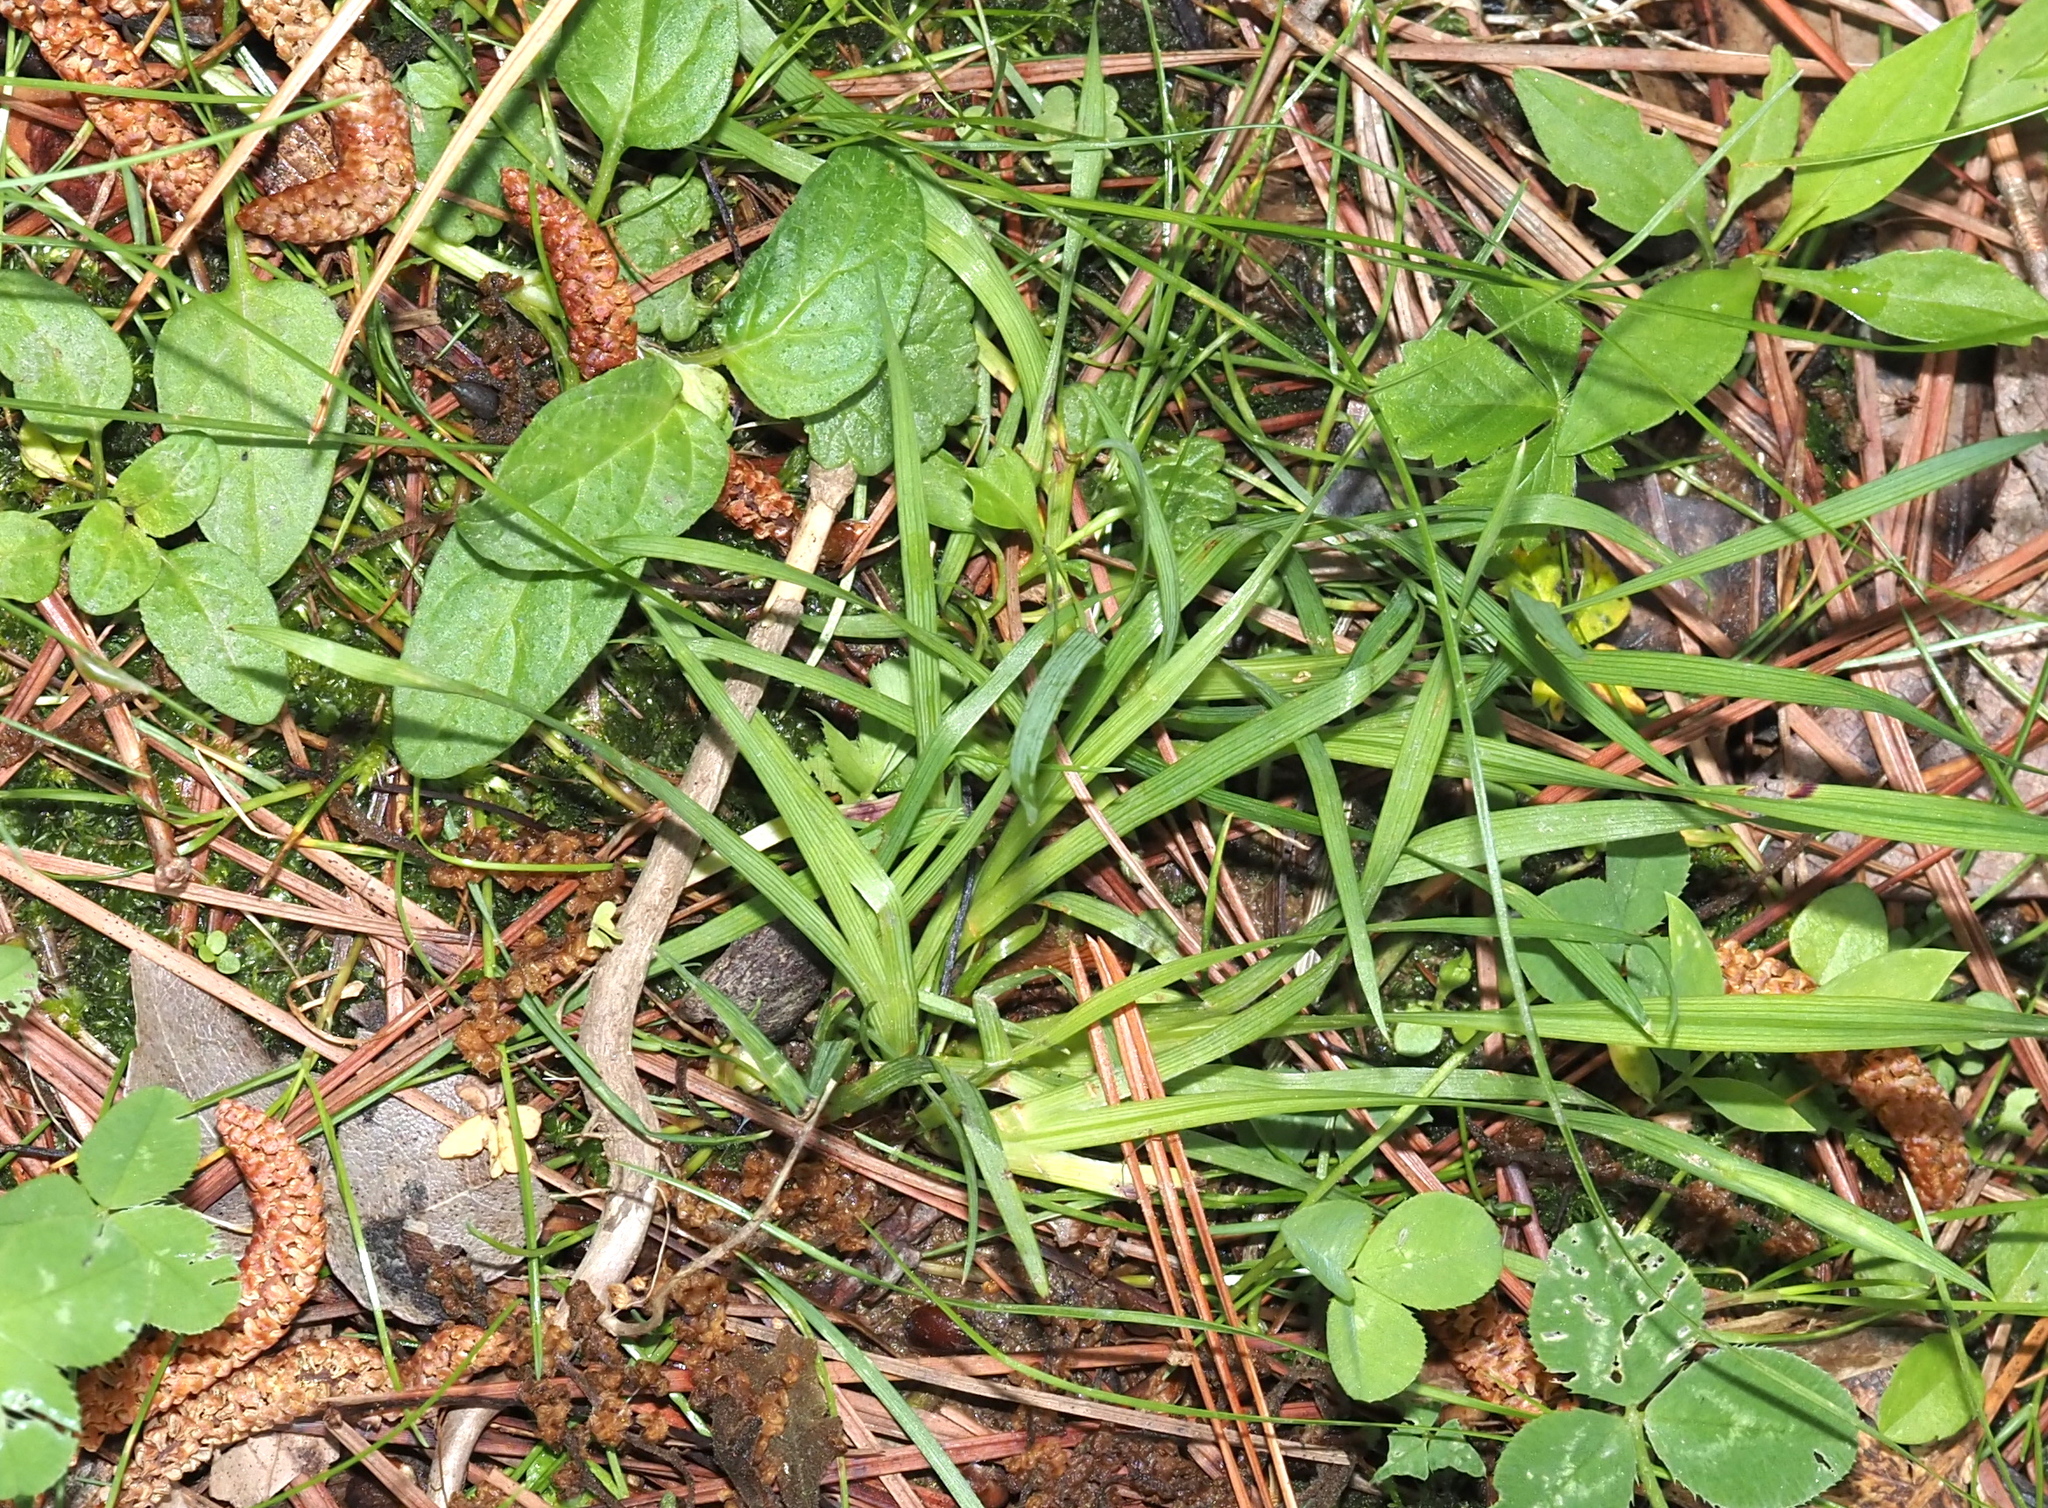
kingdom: Plantae
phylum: Tracheophyta
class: Liliopsida
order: Asparagales
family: Iridaceae
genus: Sisyrinchium
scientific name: Sisyrinchium angustifolium
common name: Narrow-leaf blue-eyed-grass
